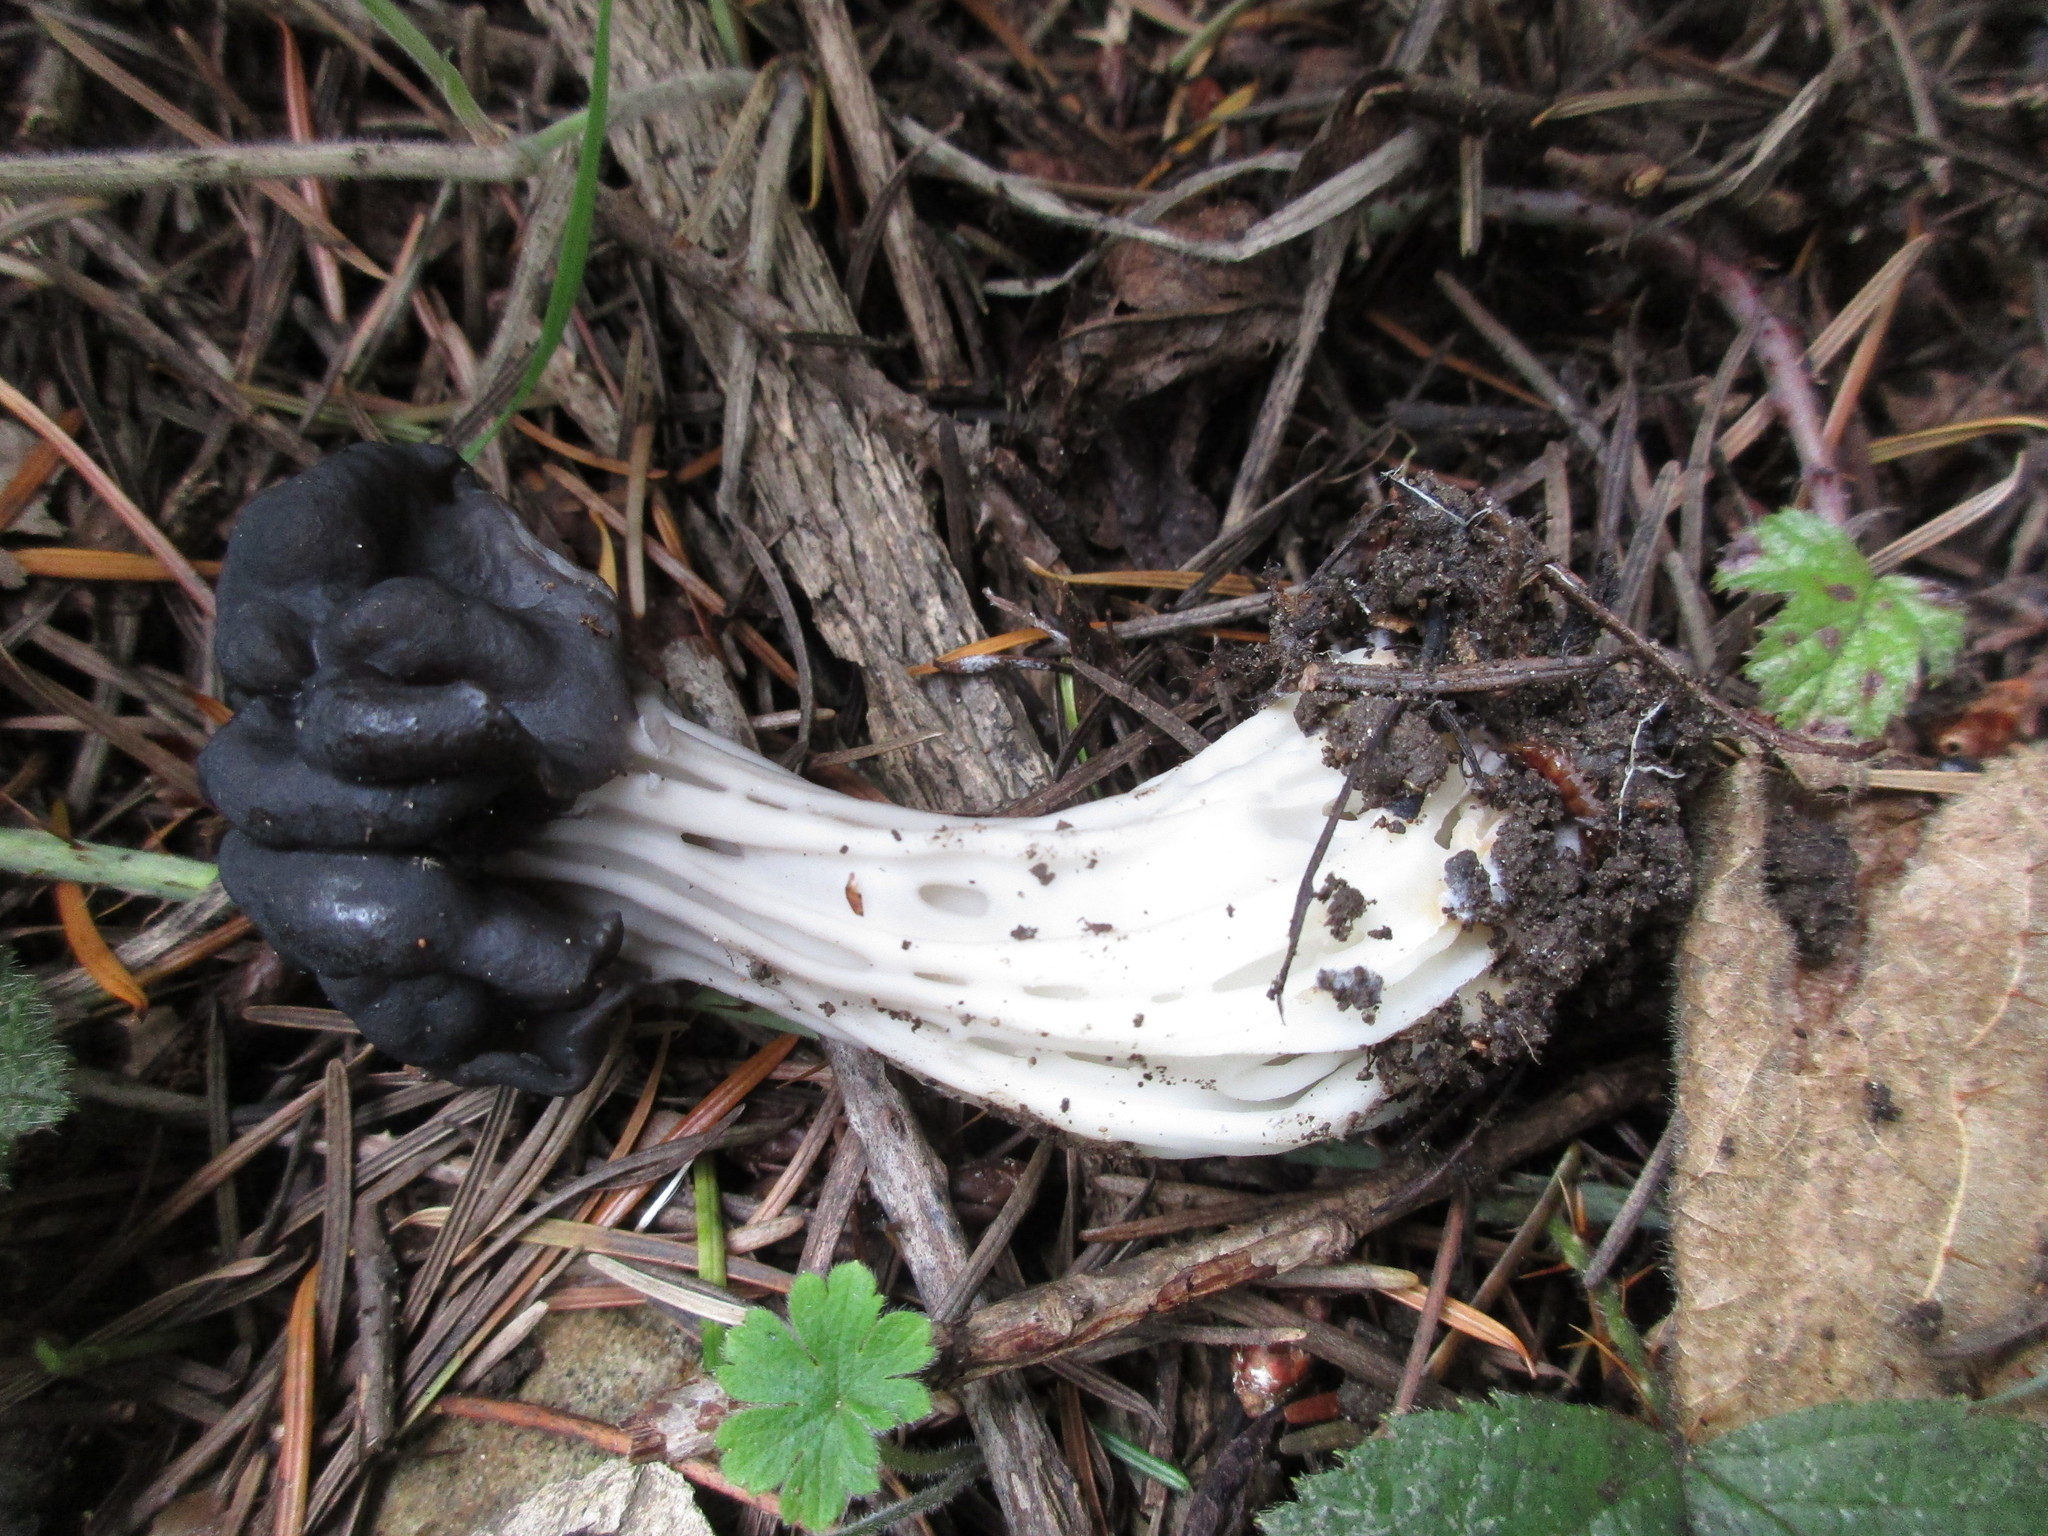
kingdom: Fungi
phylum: Ascomycota
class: Pezizomycetes
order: Pezizales
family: Helvellaceae
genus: Helvella
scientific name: Helvella vespertina
